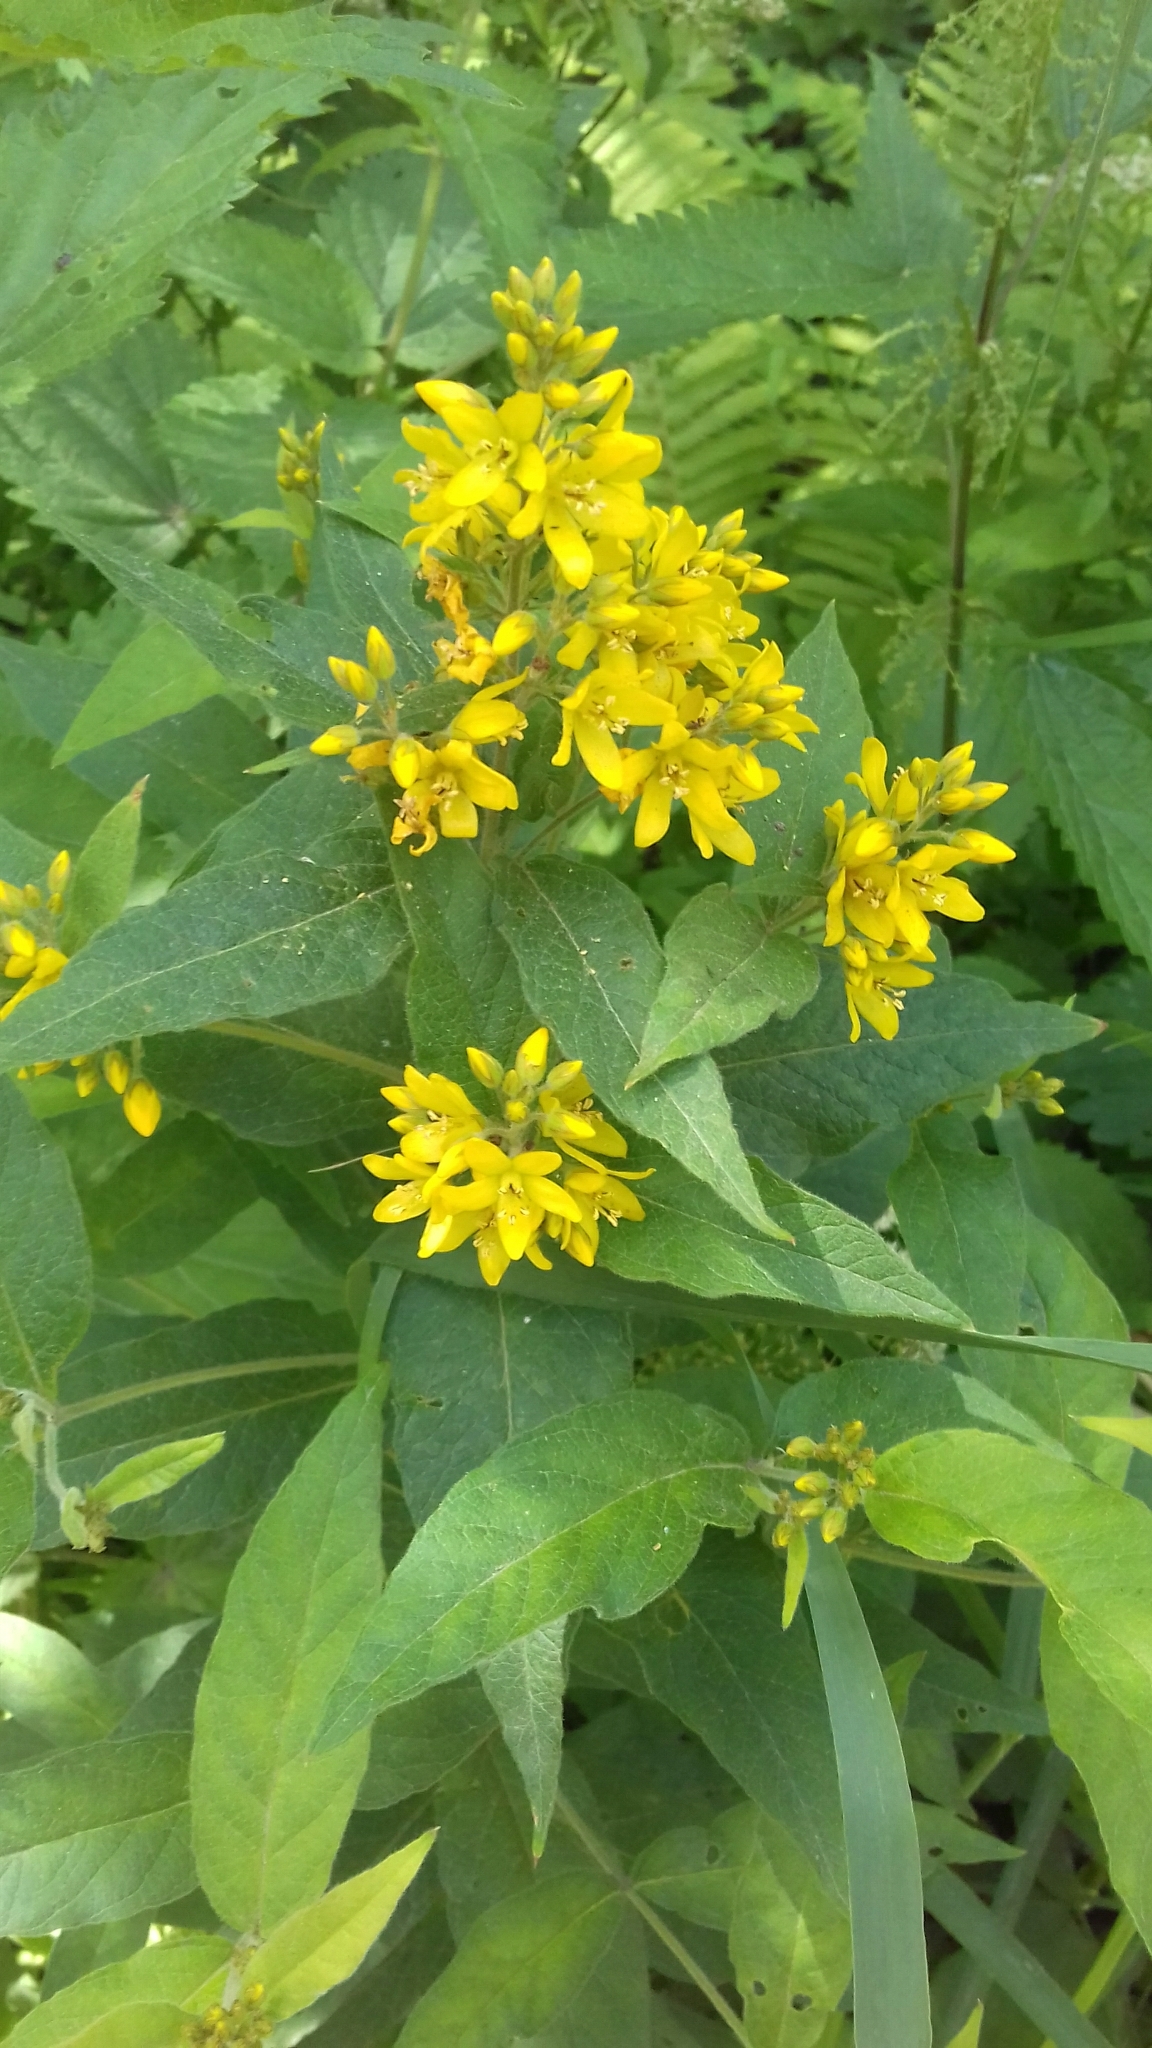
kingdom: Plantae
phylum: Tracheophyta
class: Magnoliopsida
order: Ericales
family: Primulaceae
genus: Lysimachia
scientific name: Lysimachia vulgaris
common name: Yellow loosestrife
